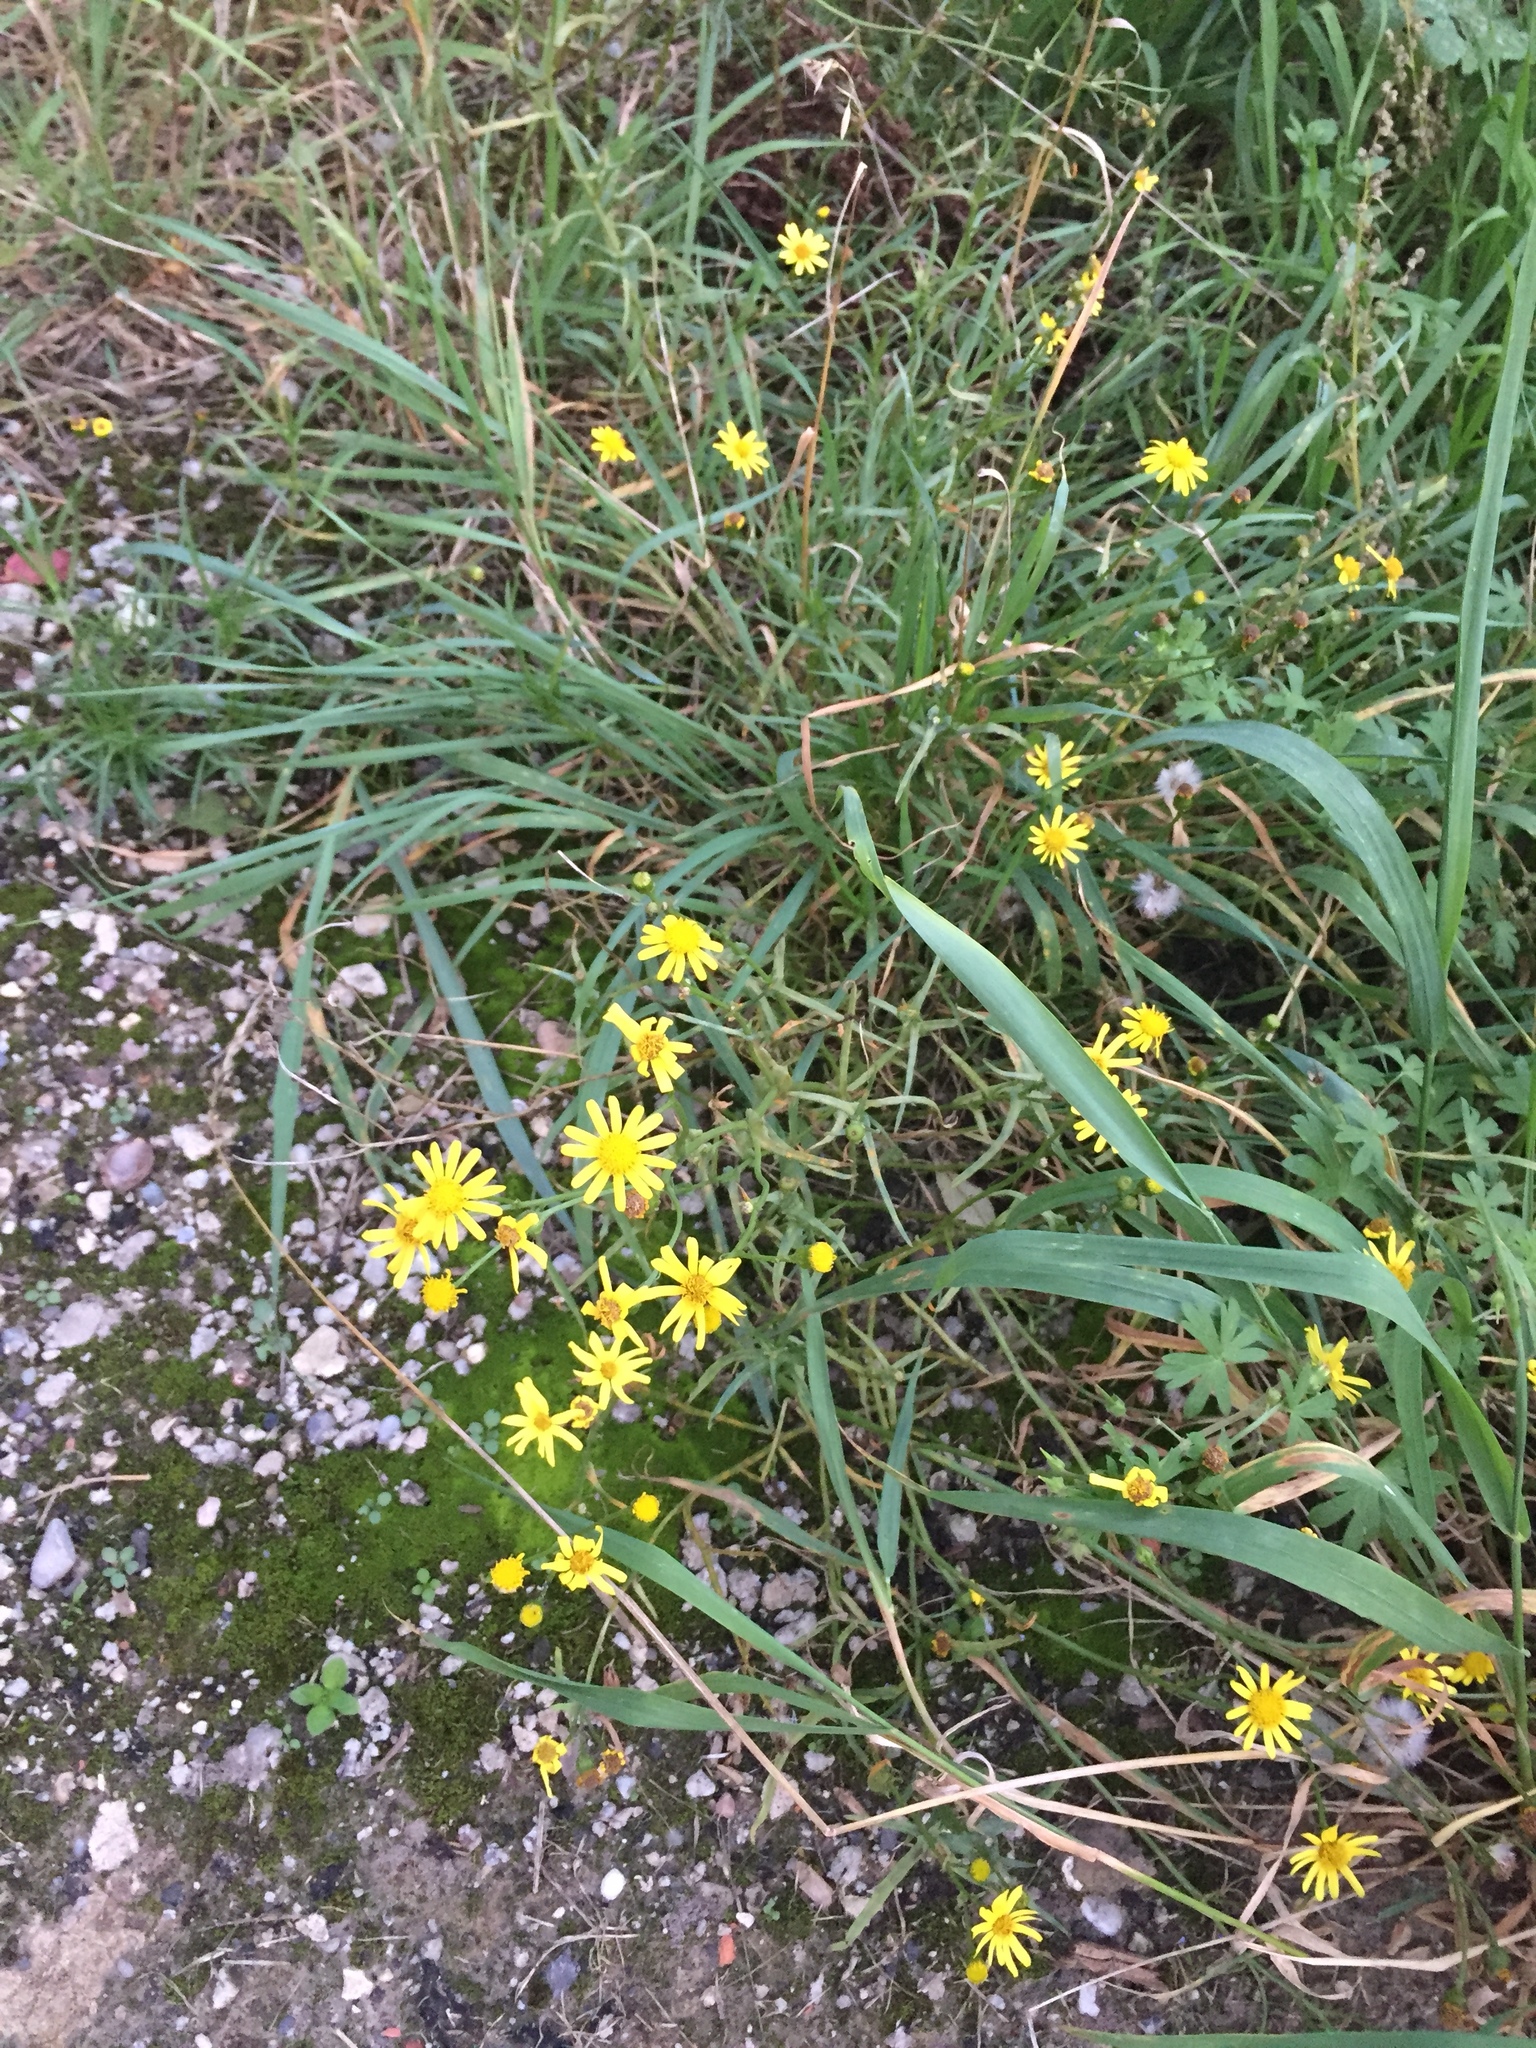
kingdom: Plantae
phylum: Tracheophyta
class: Magnoliopsida
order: Asterales
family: Asteraceae
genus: Senecio
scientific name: Senecio inaequidens
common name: Narrow-leaved ragwort
